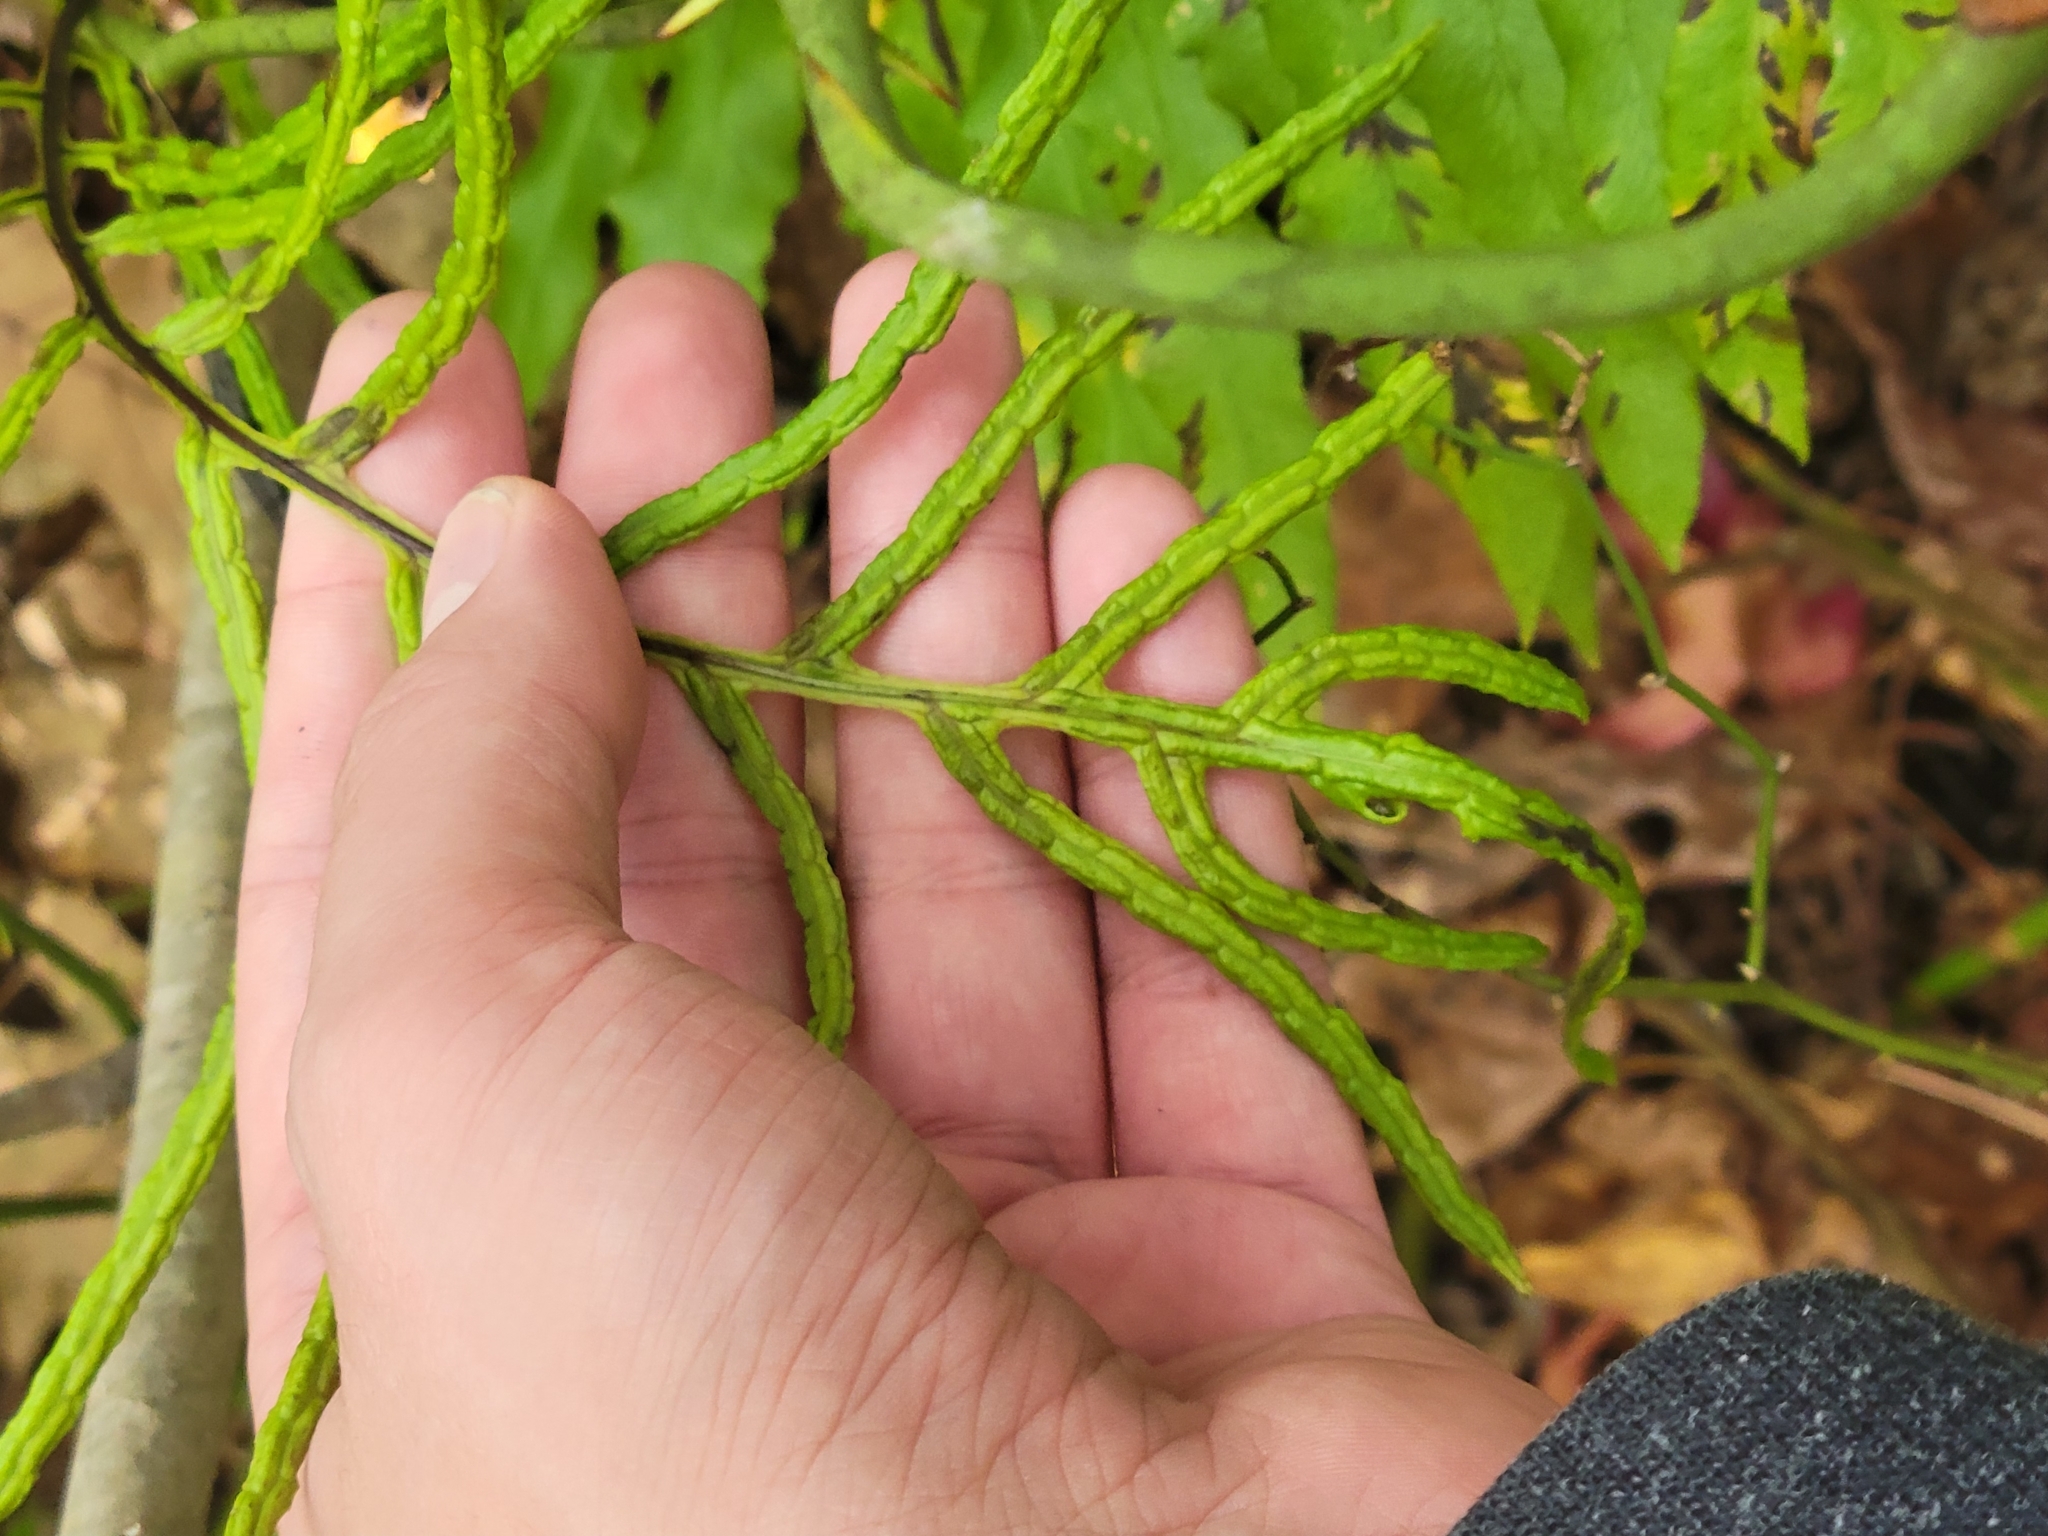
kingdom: Plantae
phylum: Tracheophyta
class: Polypodiopsida
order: Polypodiales
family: Blechnaceae
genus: Lorinseria
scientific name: Lorinseria areolata
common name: Dwarf chain fern
